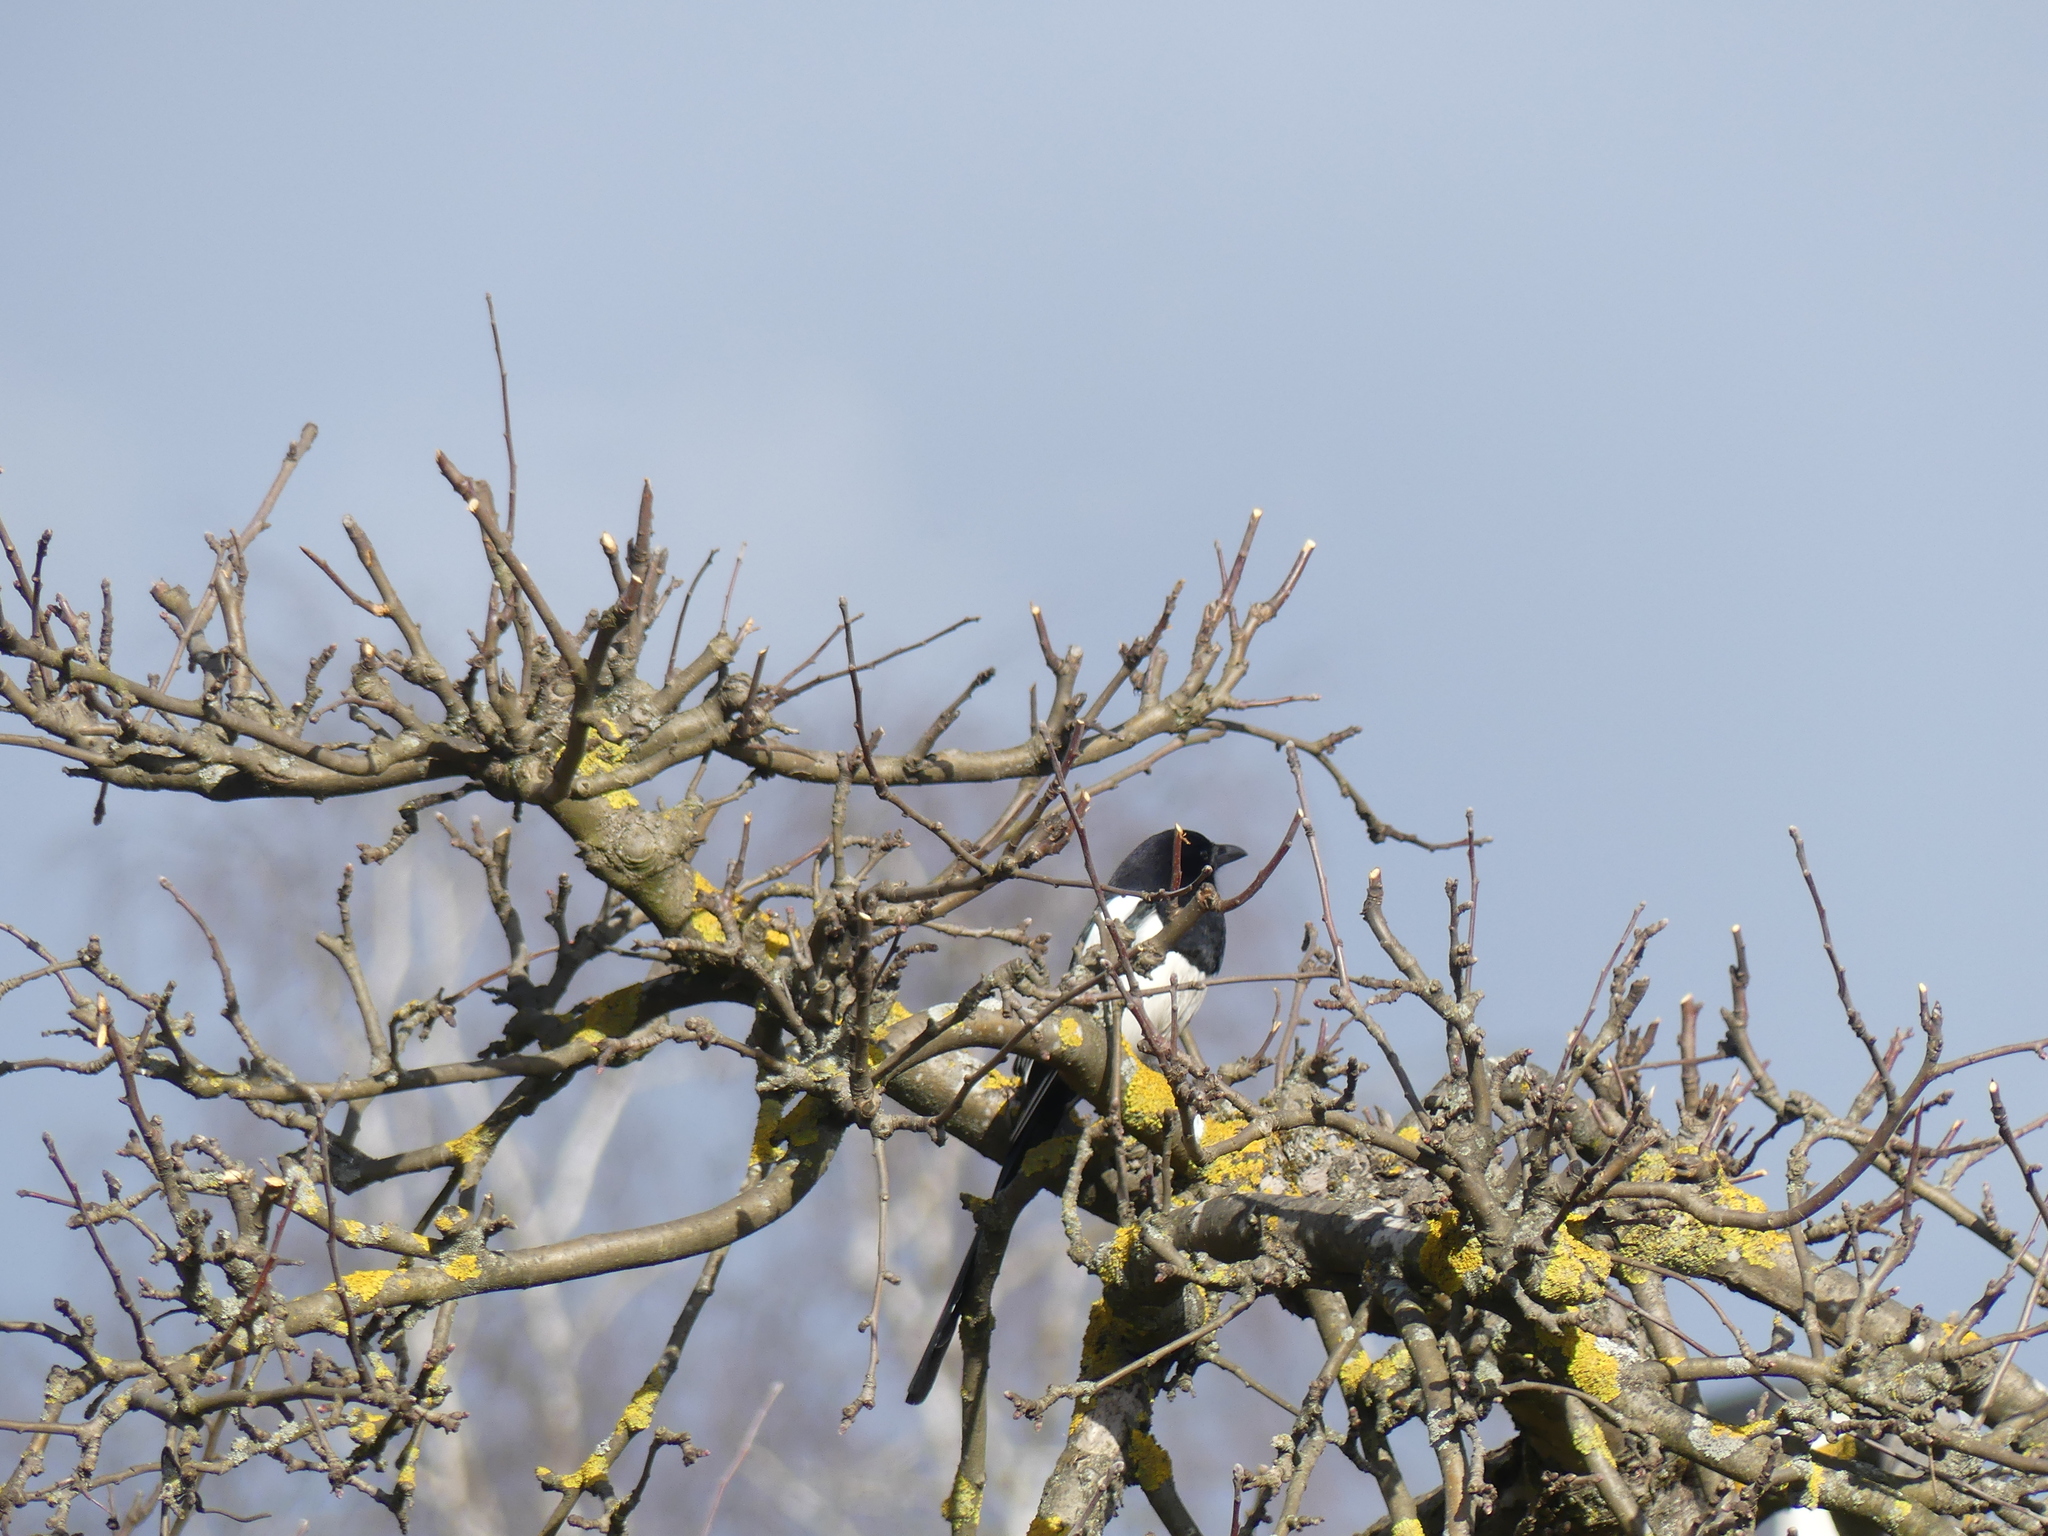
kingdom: Animalia
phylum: Chordata
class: Aves
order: Passeriformes
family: Corvidae
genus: Pica
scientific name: Pica pica
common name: Eurasian magpie
